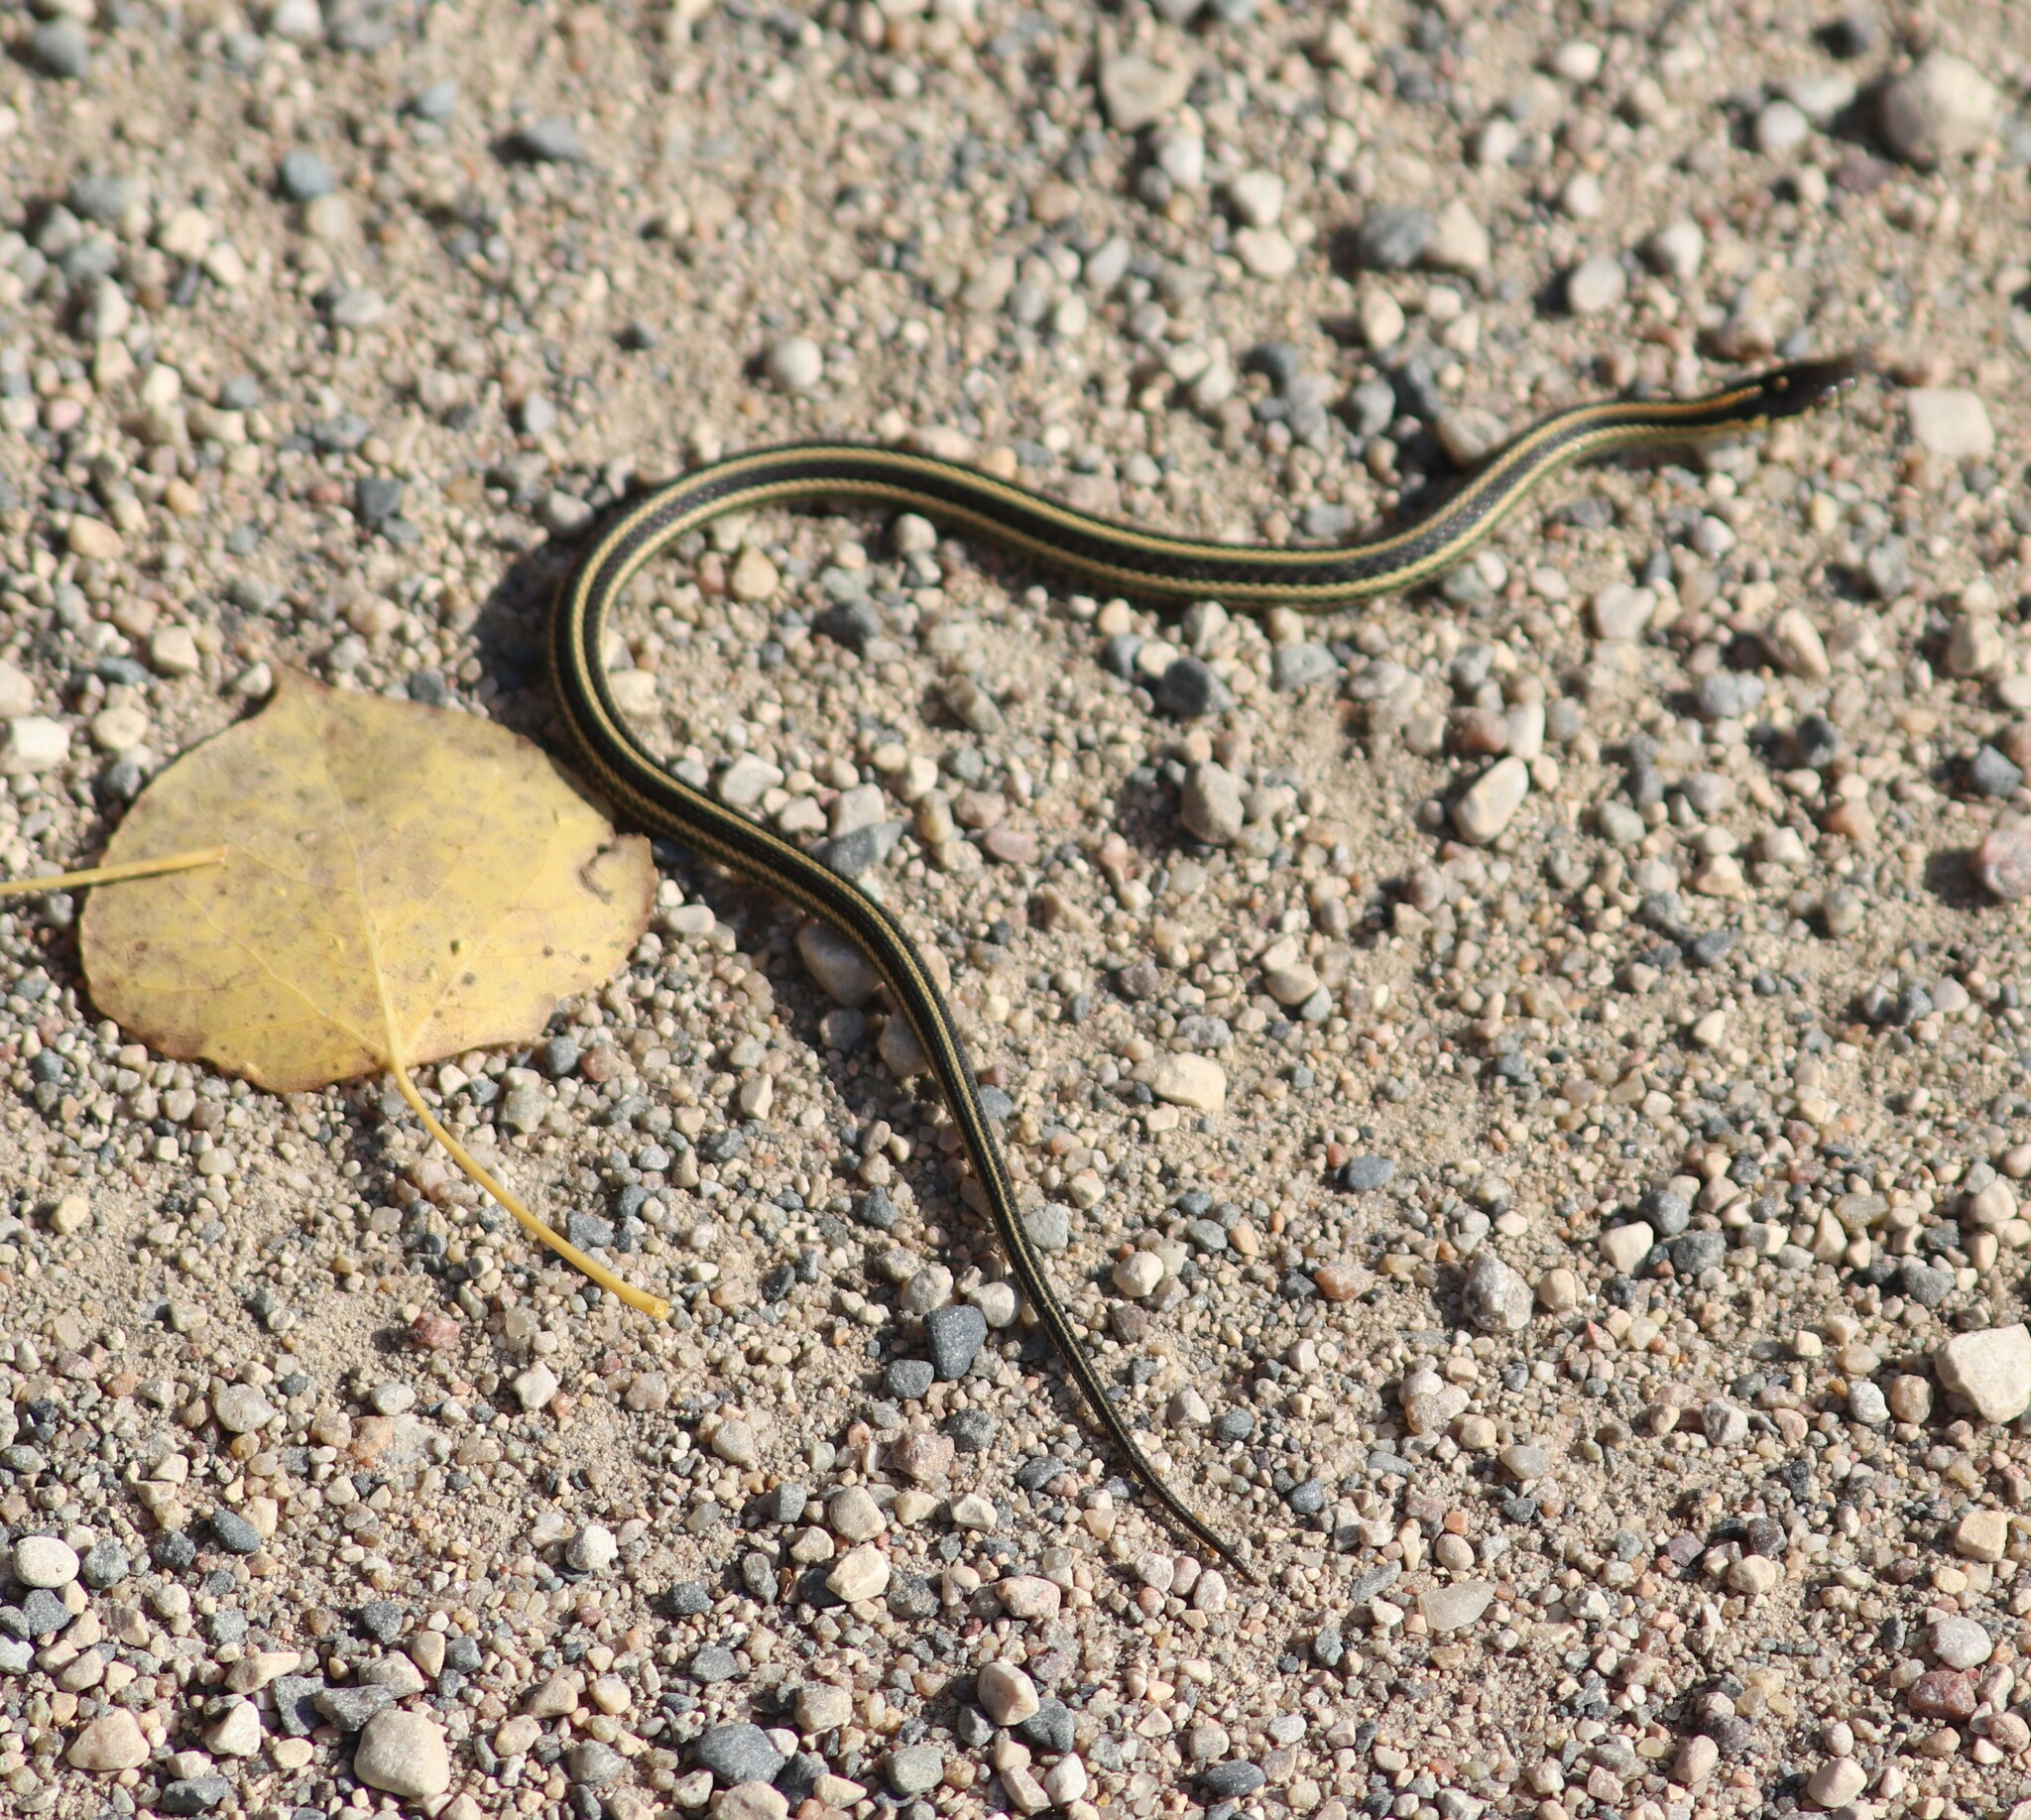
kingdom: Animalia
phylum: Chordata
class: Squamata
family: Colubridae
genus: Thamnophis
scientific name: Thamnophis radix
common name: Plains garter snake
